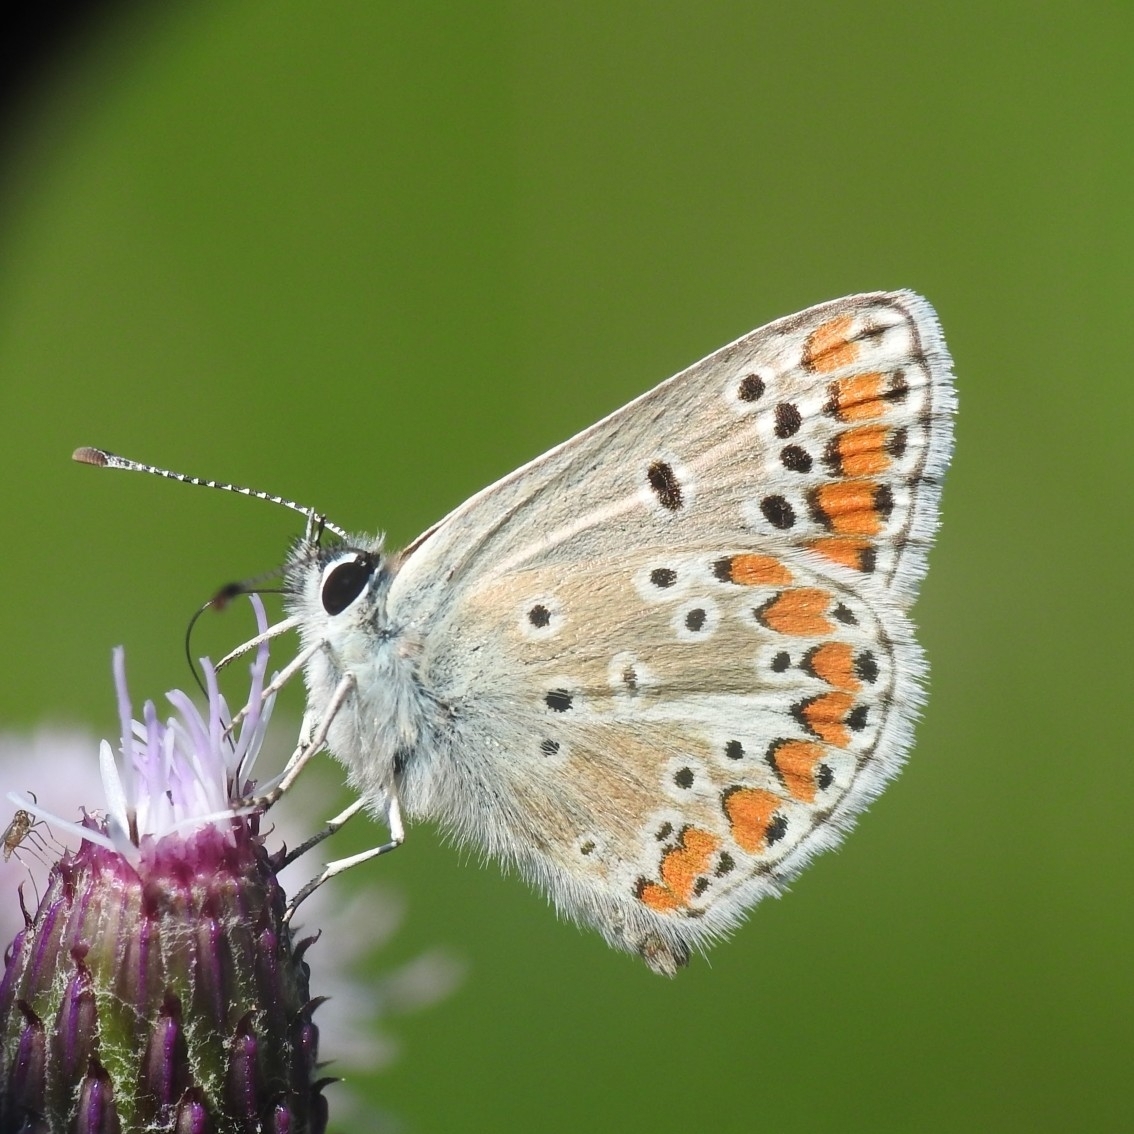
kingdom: Animalia
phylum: Arthropoda
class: Insecta
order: Lepidoptera
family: Lycaenidae
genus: Aricia
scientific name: Aricia agestis
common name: Brown argus
